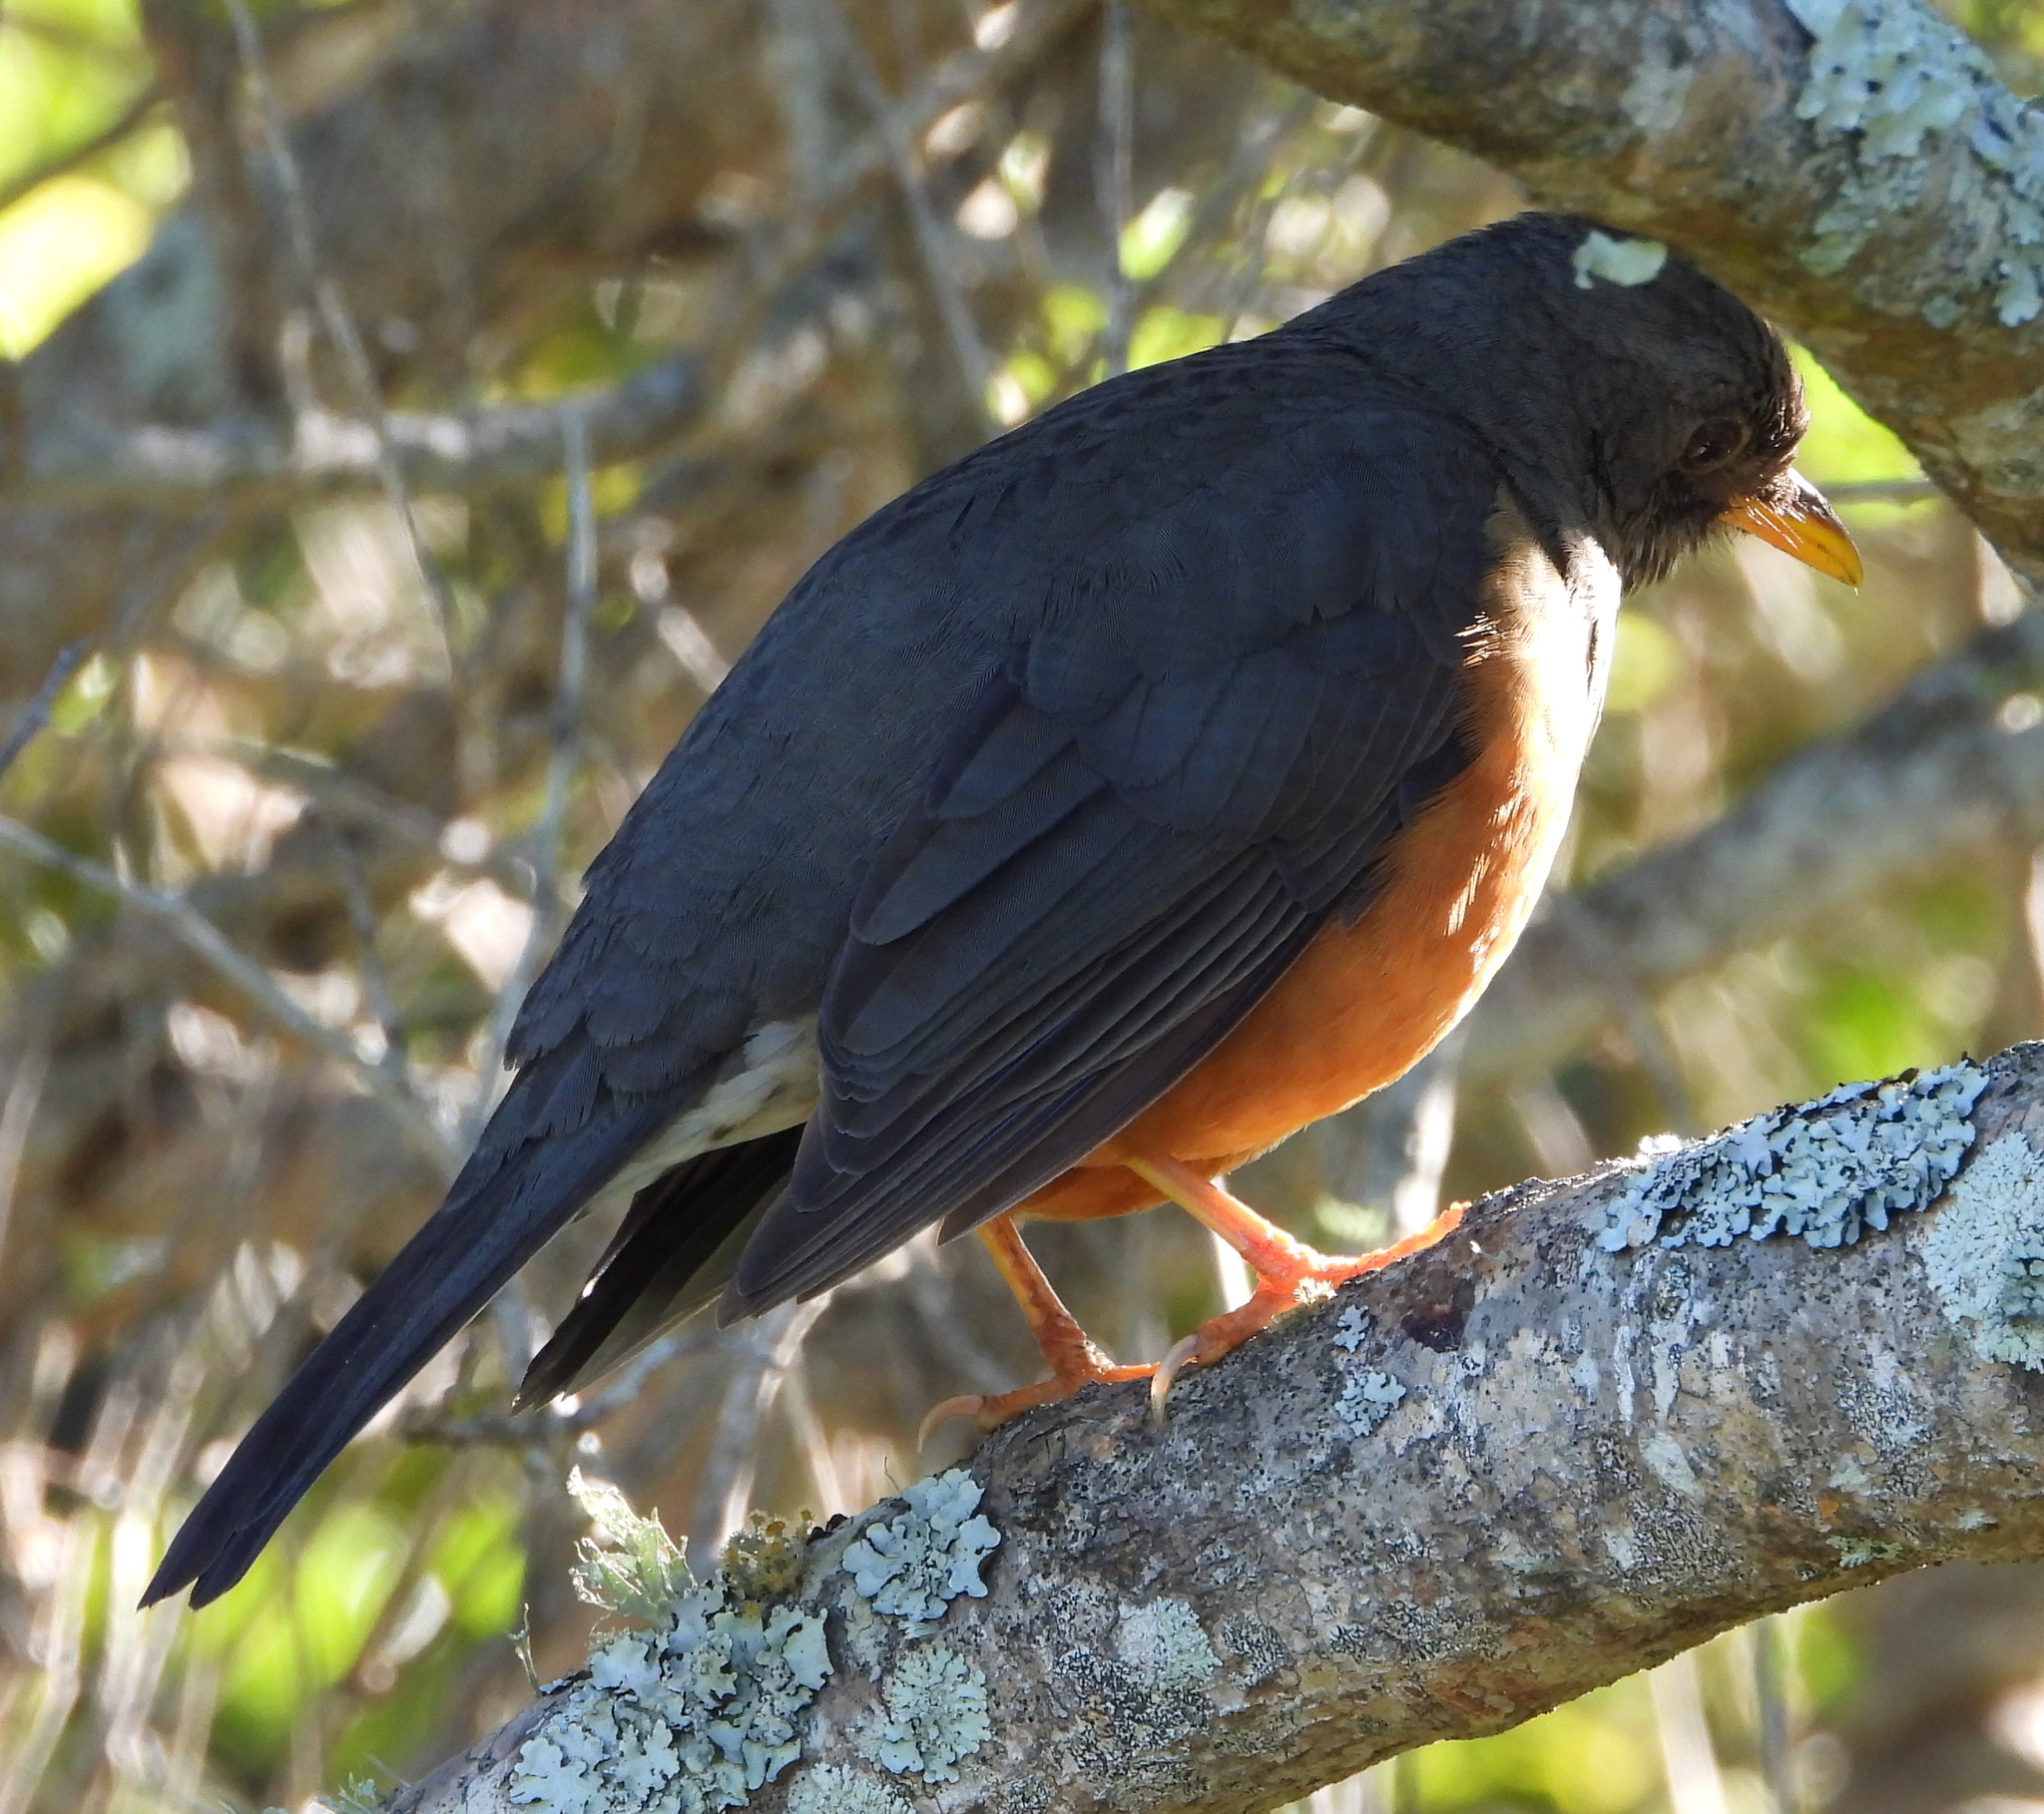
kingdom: Animalia
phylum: Chordata
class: Aves
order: Passeriformes
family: Turdidae
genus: Turdus
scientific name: Turdus olivaceus
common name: Olive thrush
